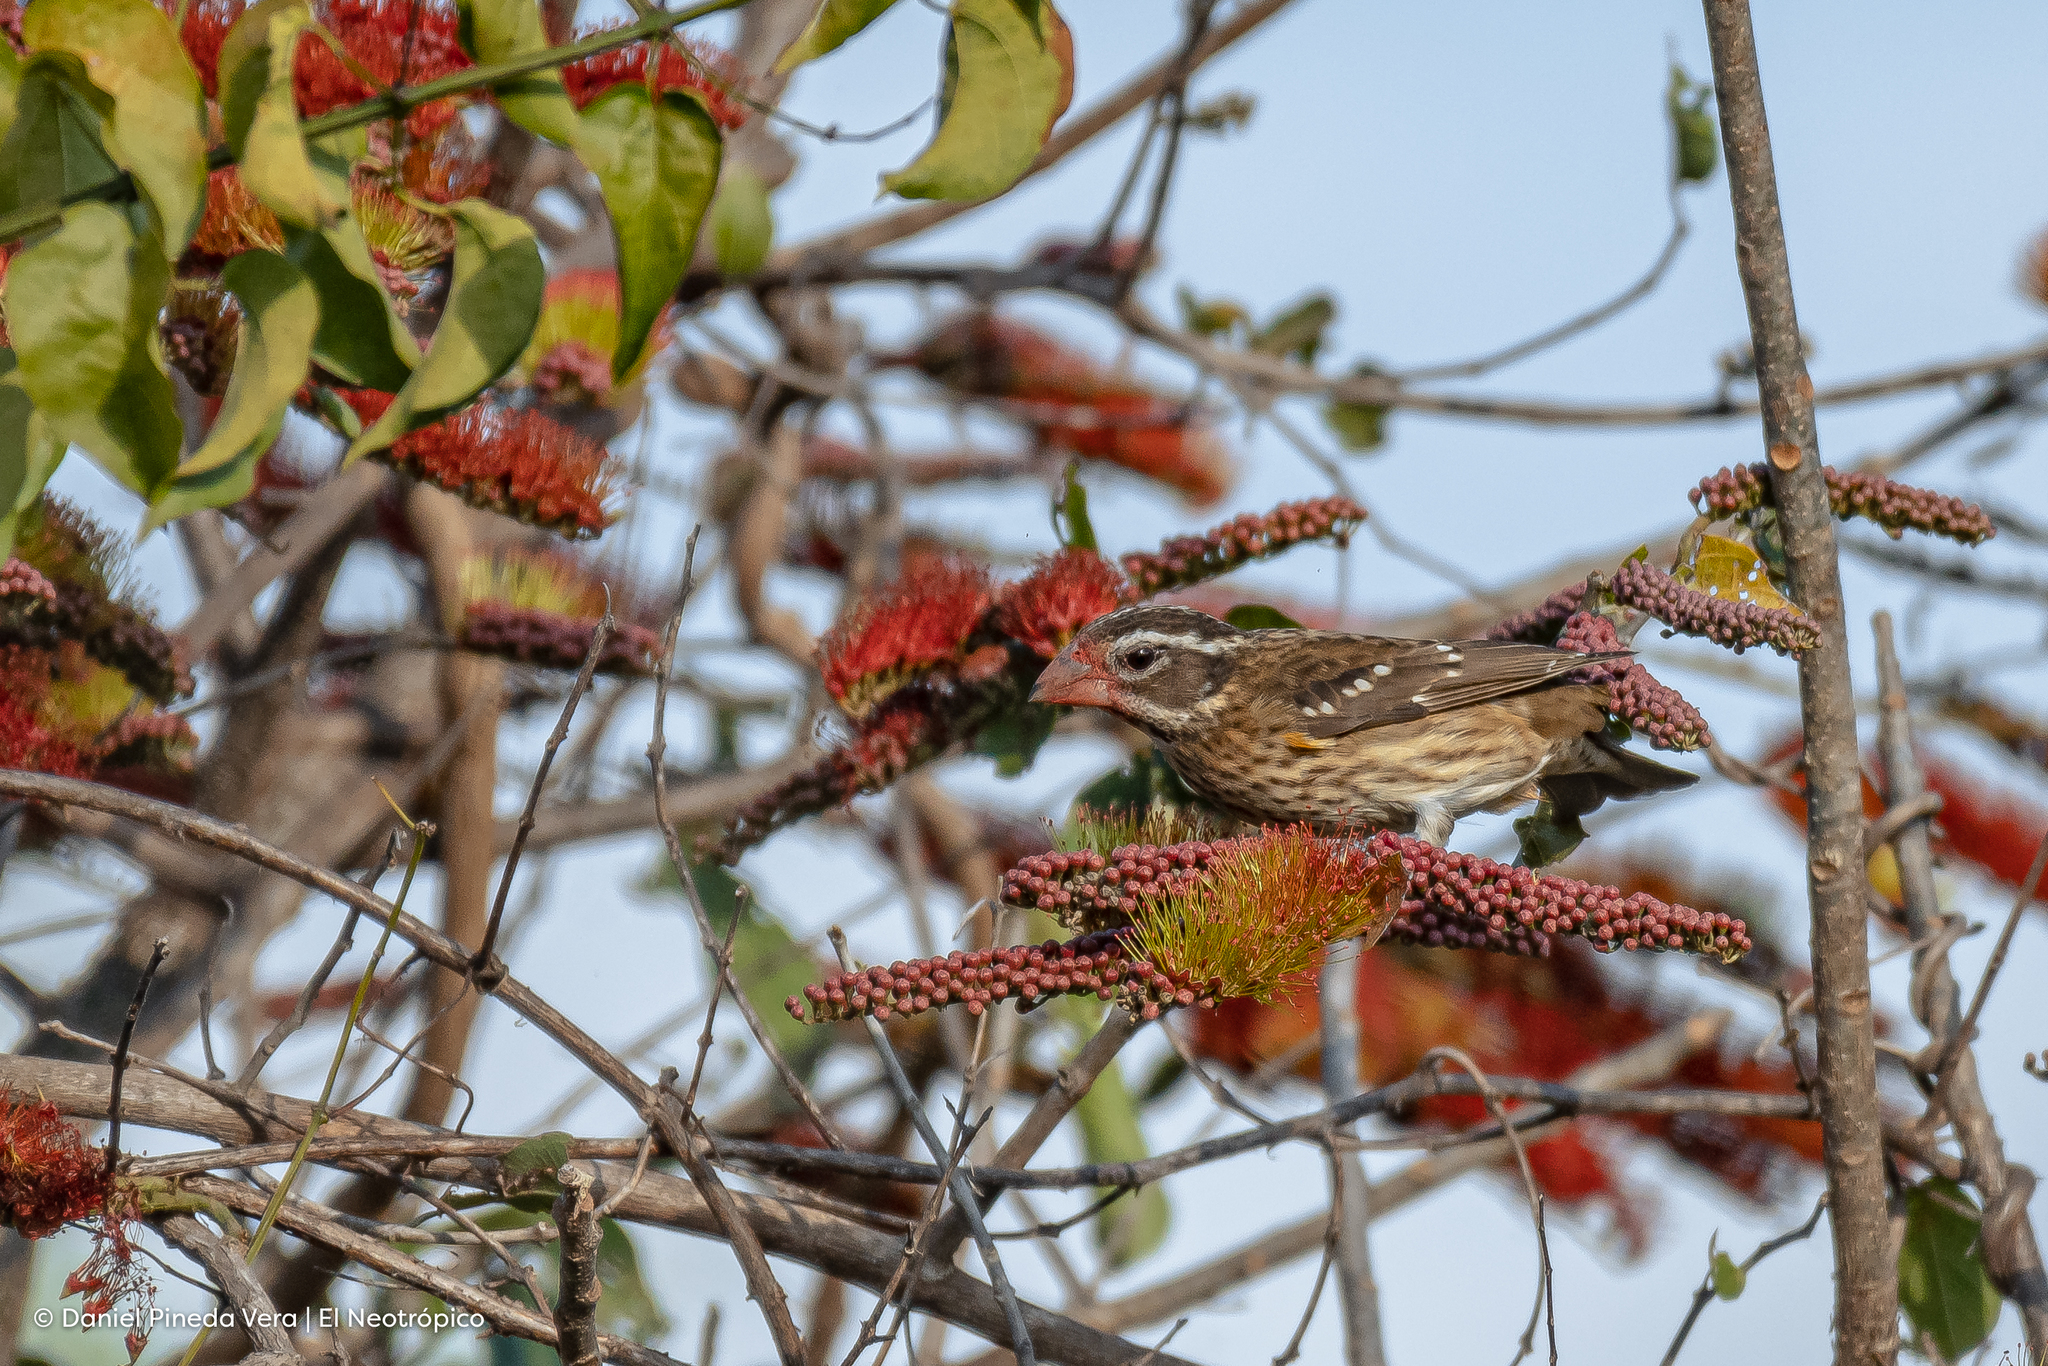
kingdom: Animalia
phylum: Chordata
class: Aves
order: Passeriformes
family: Cardinalidae
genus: Pheucticus
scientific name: Pheucticus ludovicianus
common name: Rose-breasted grosbeak
